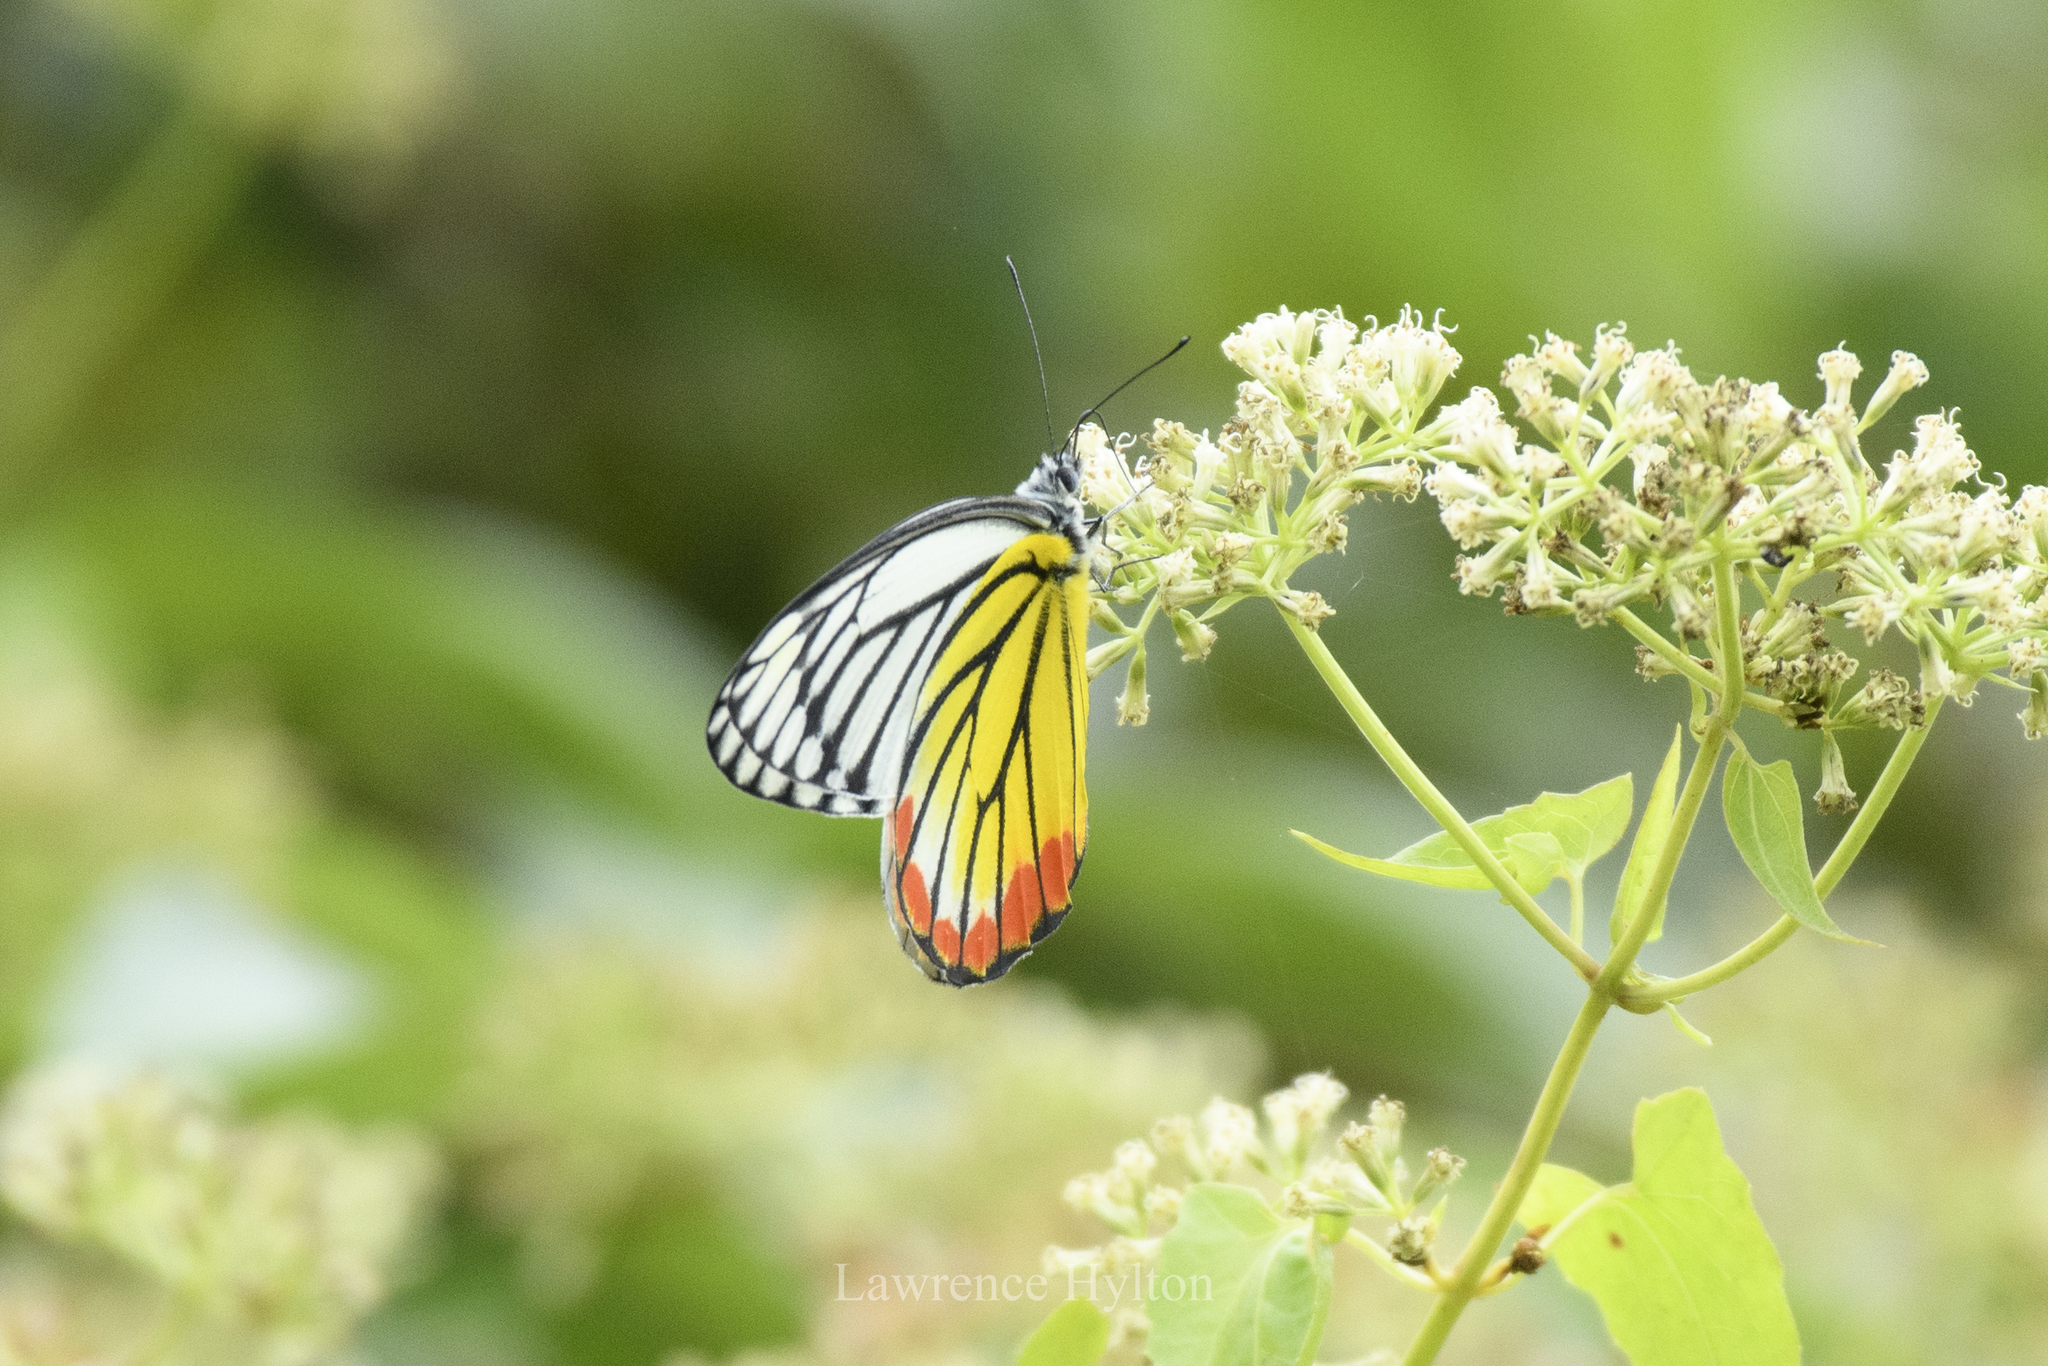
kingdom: Animalia
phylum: Arthropoda
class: Insecta
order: Lepidoptera
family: Pieridae
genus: Delias
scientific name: Delias hyparete
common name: Painted jezebel
